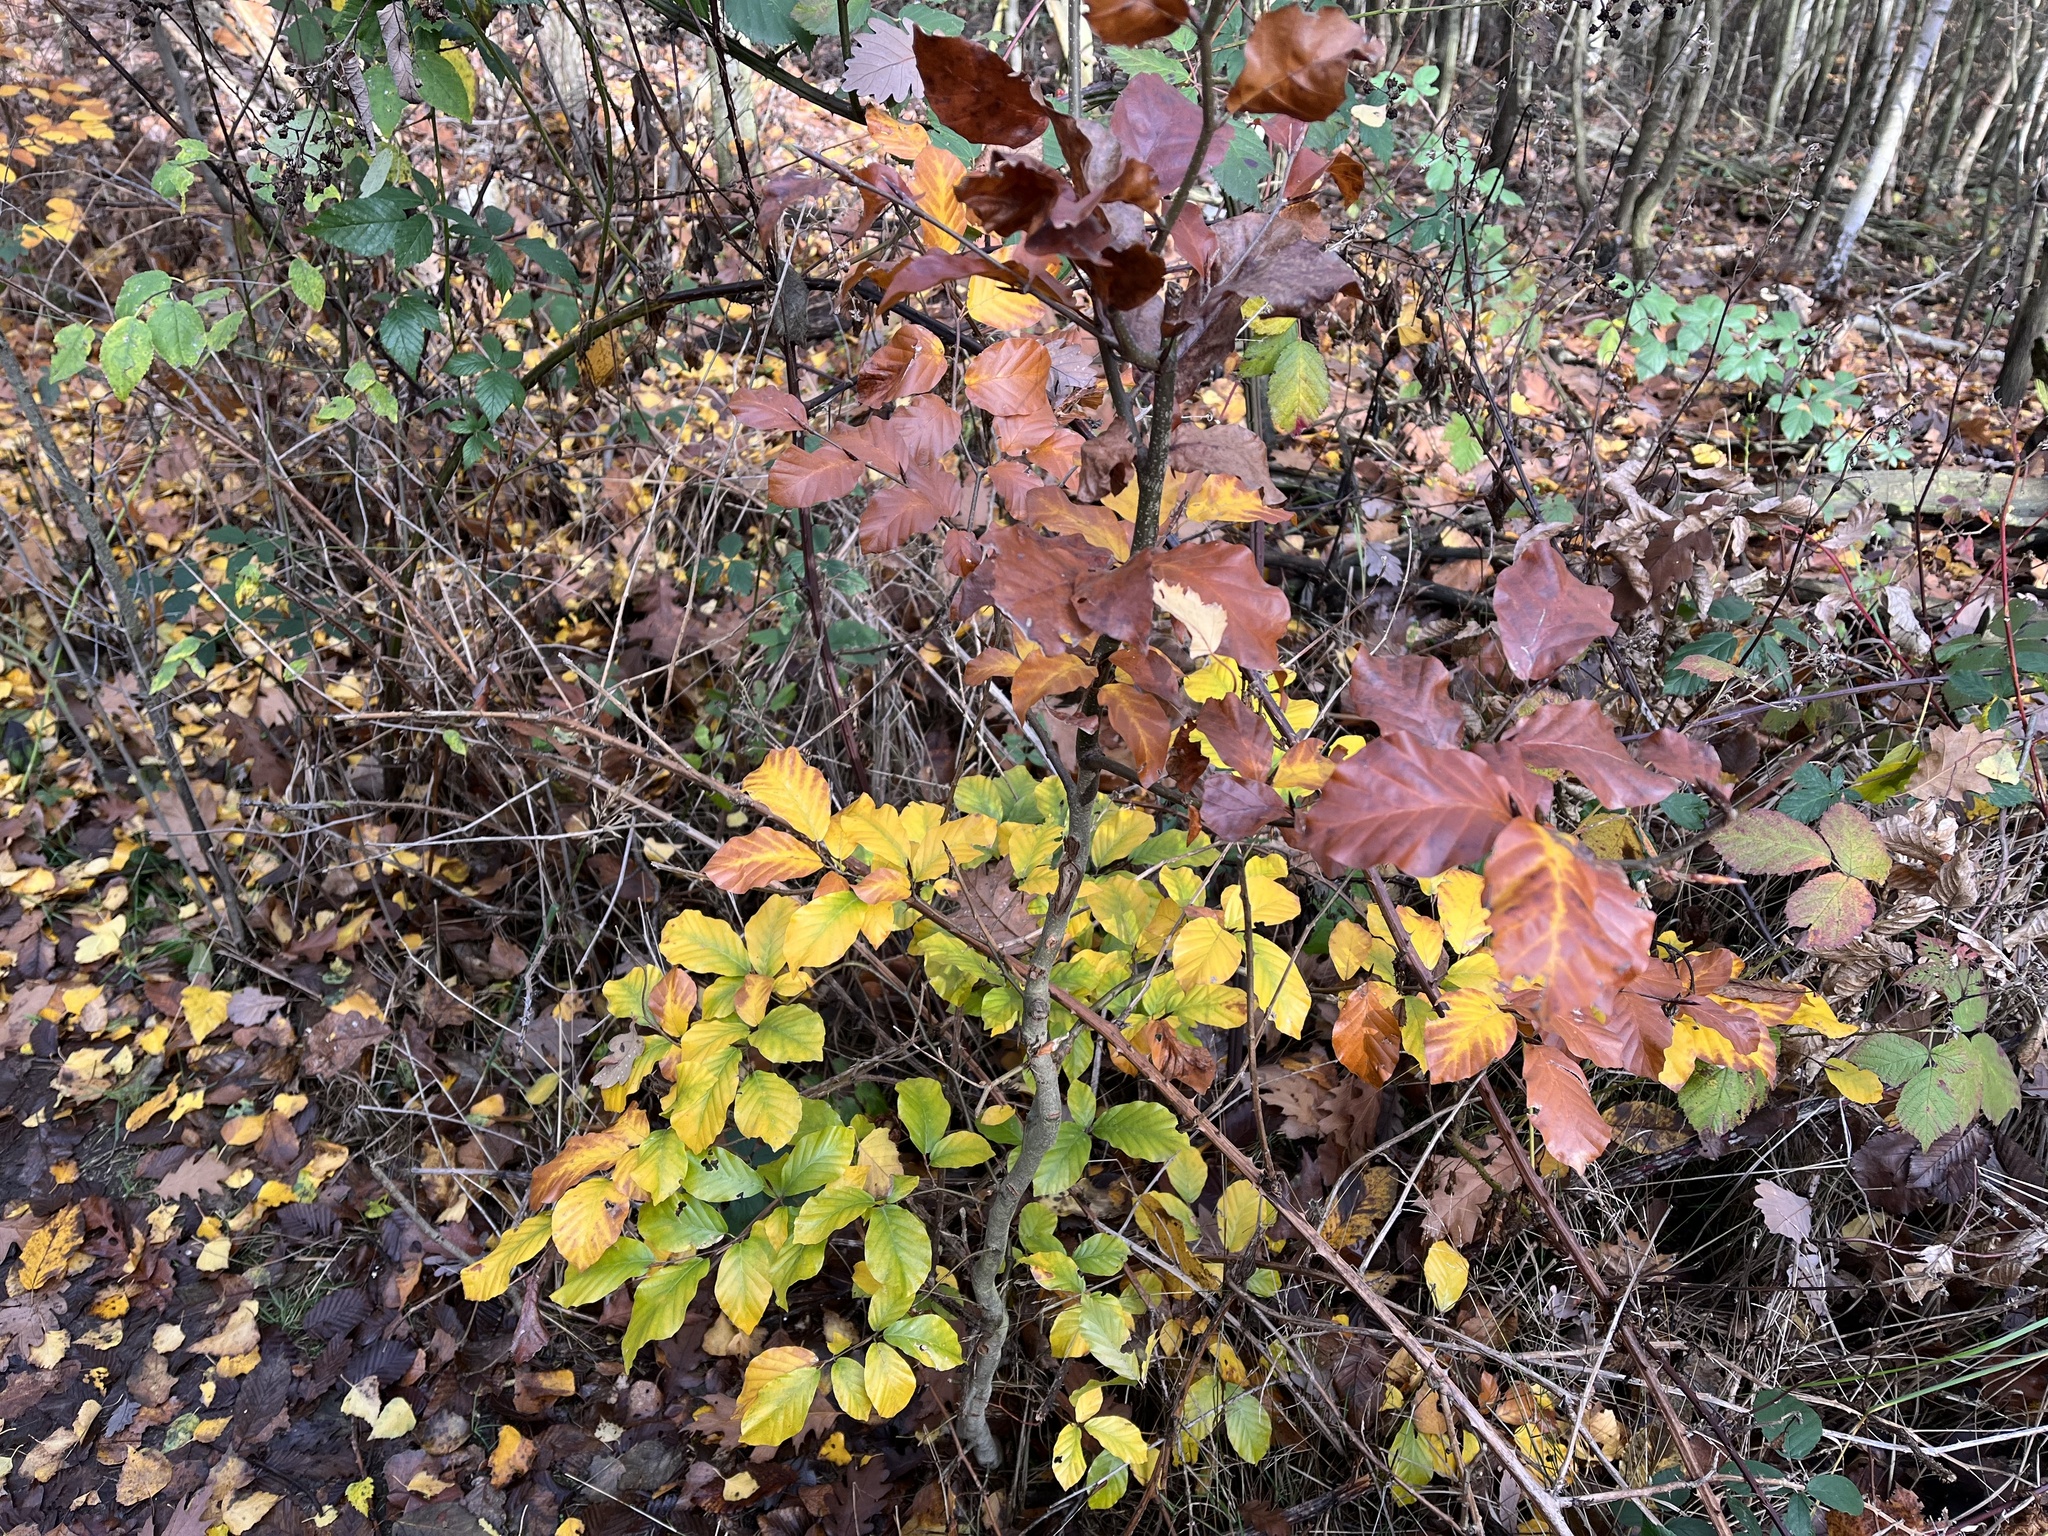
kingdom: Plantae
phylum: Tracheophyta
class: Magnoliopsida
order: Fagales
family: Fagaceae
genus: Fagus
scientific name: Fagus sylvatica
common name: Beech
